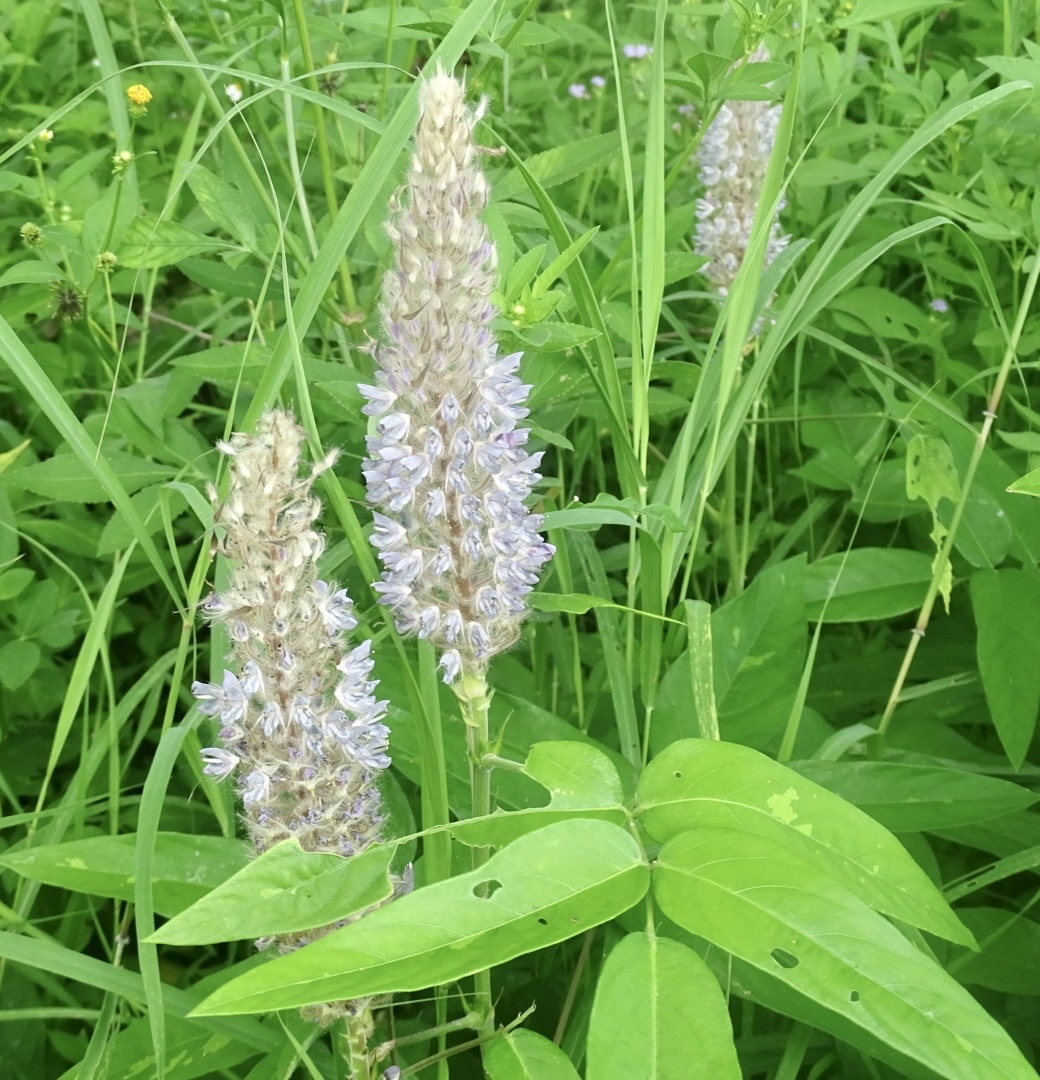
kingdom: Plantae
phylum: Tracheophyta
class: Magnoliopsida
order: Fabales
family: Fabaceae
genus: Uraria
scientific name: Uraria crinita
